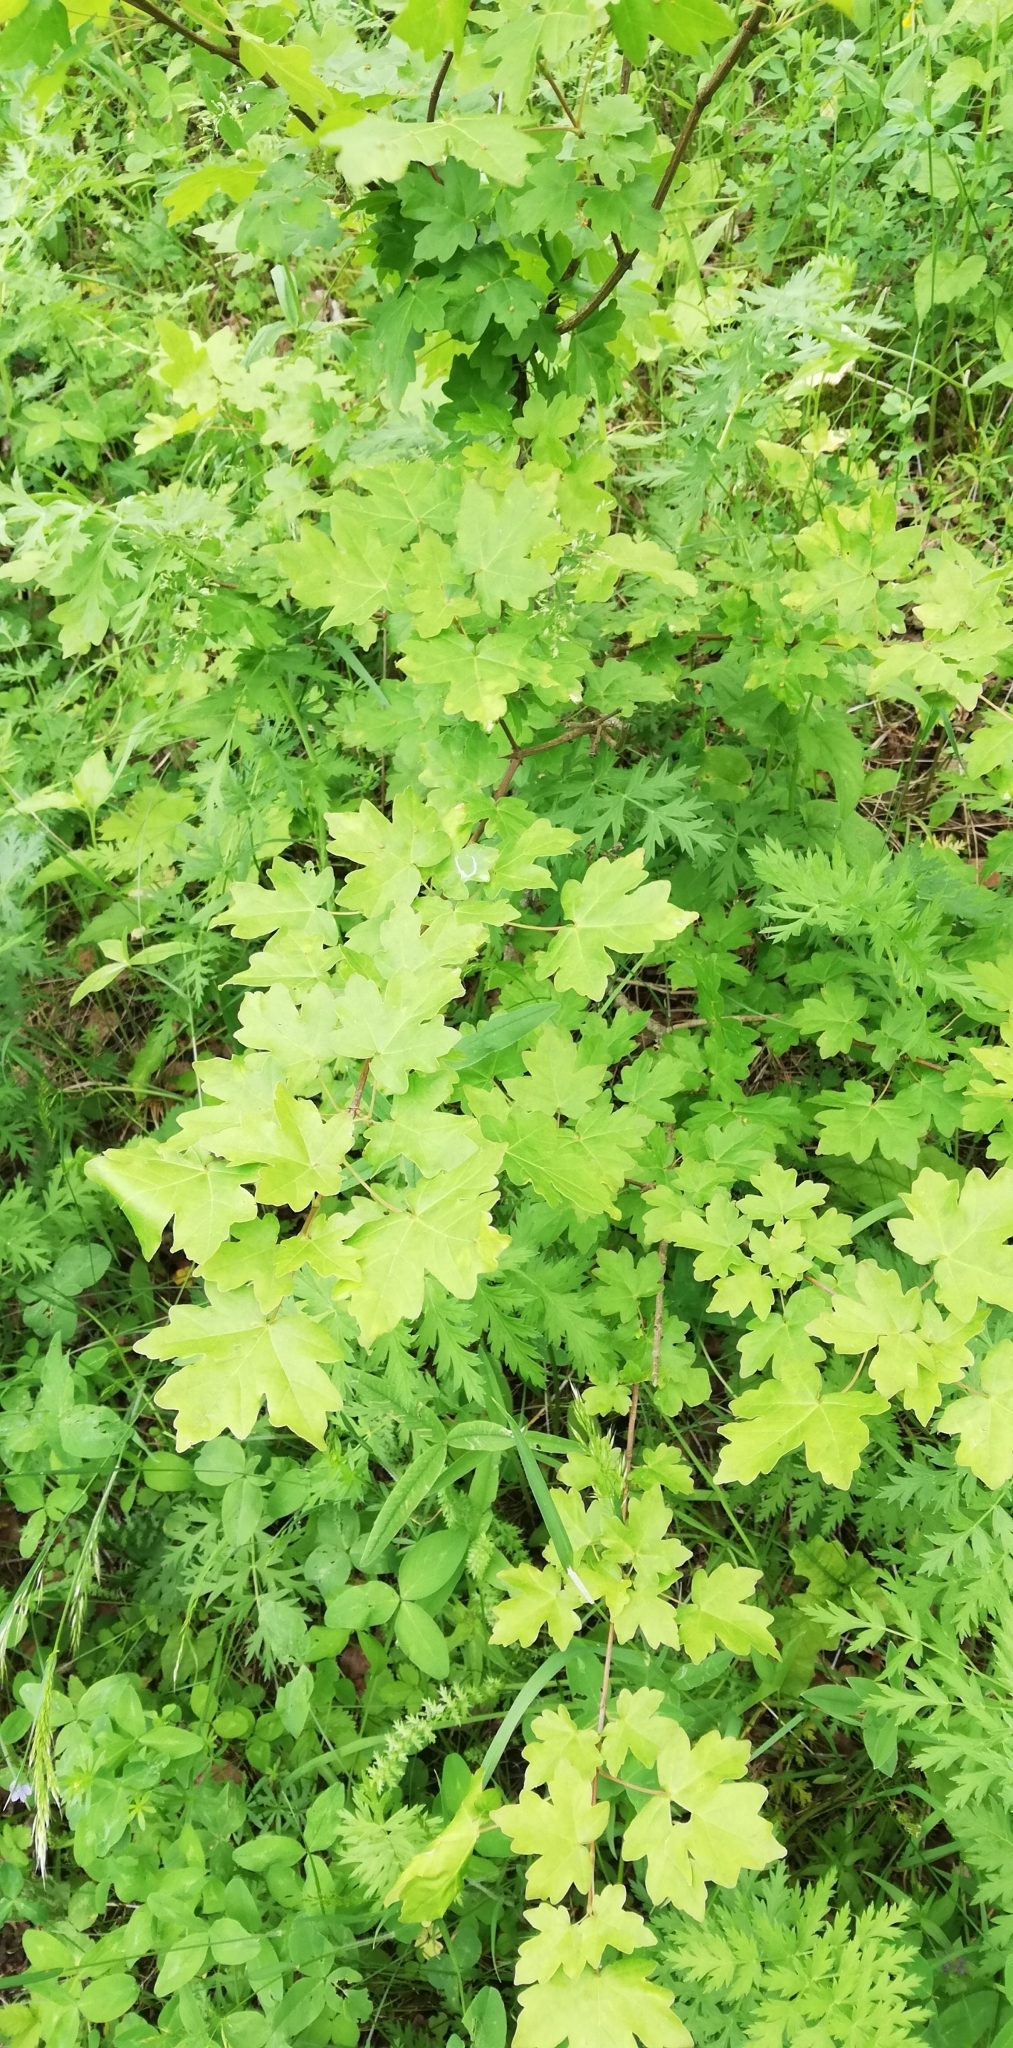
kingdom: Plantae
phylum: Tracheophyta
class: Magnoliopsida
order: Sapindales
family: Sapindaceae
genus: Acer
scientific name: Acer campestre
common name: Field maple
